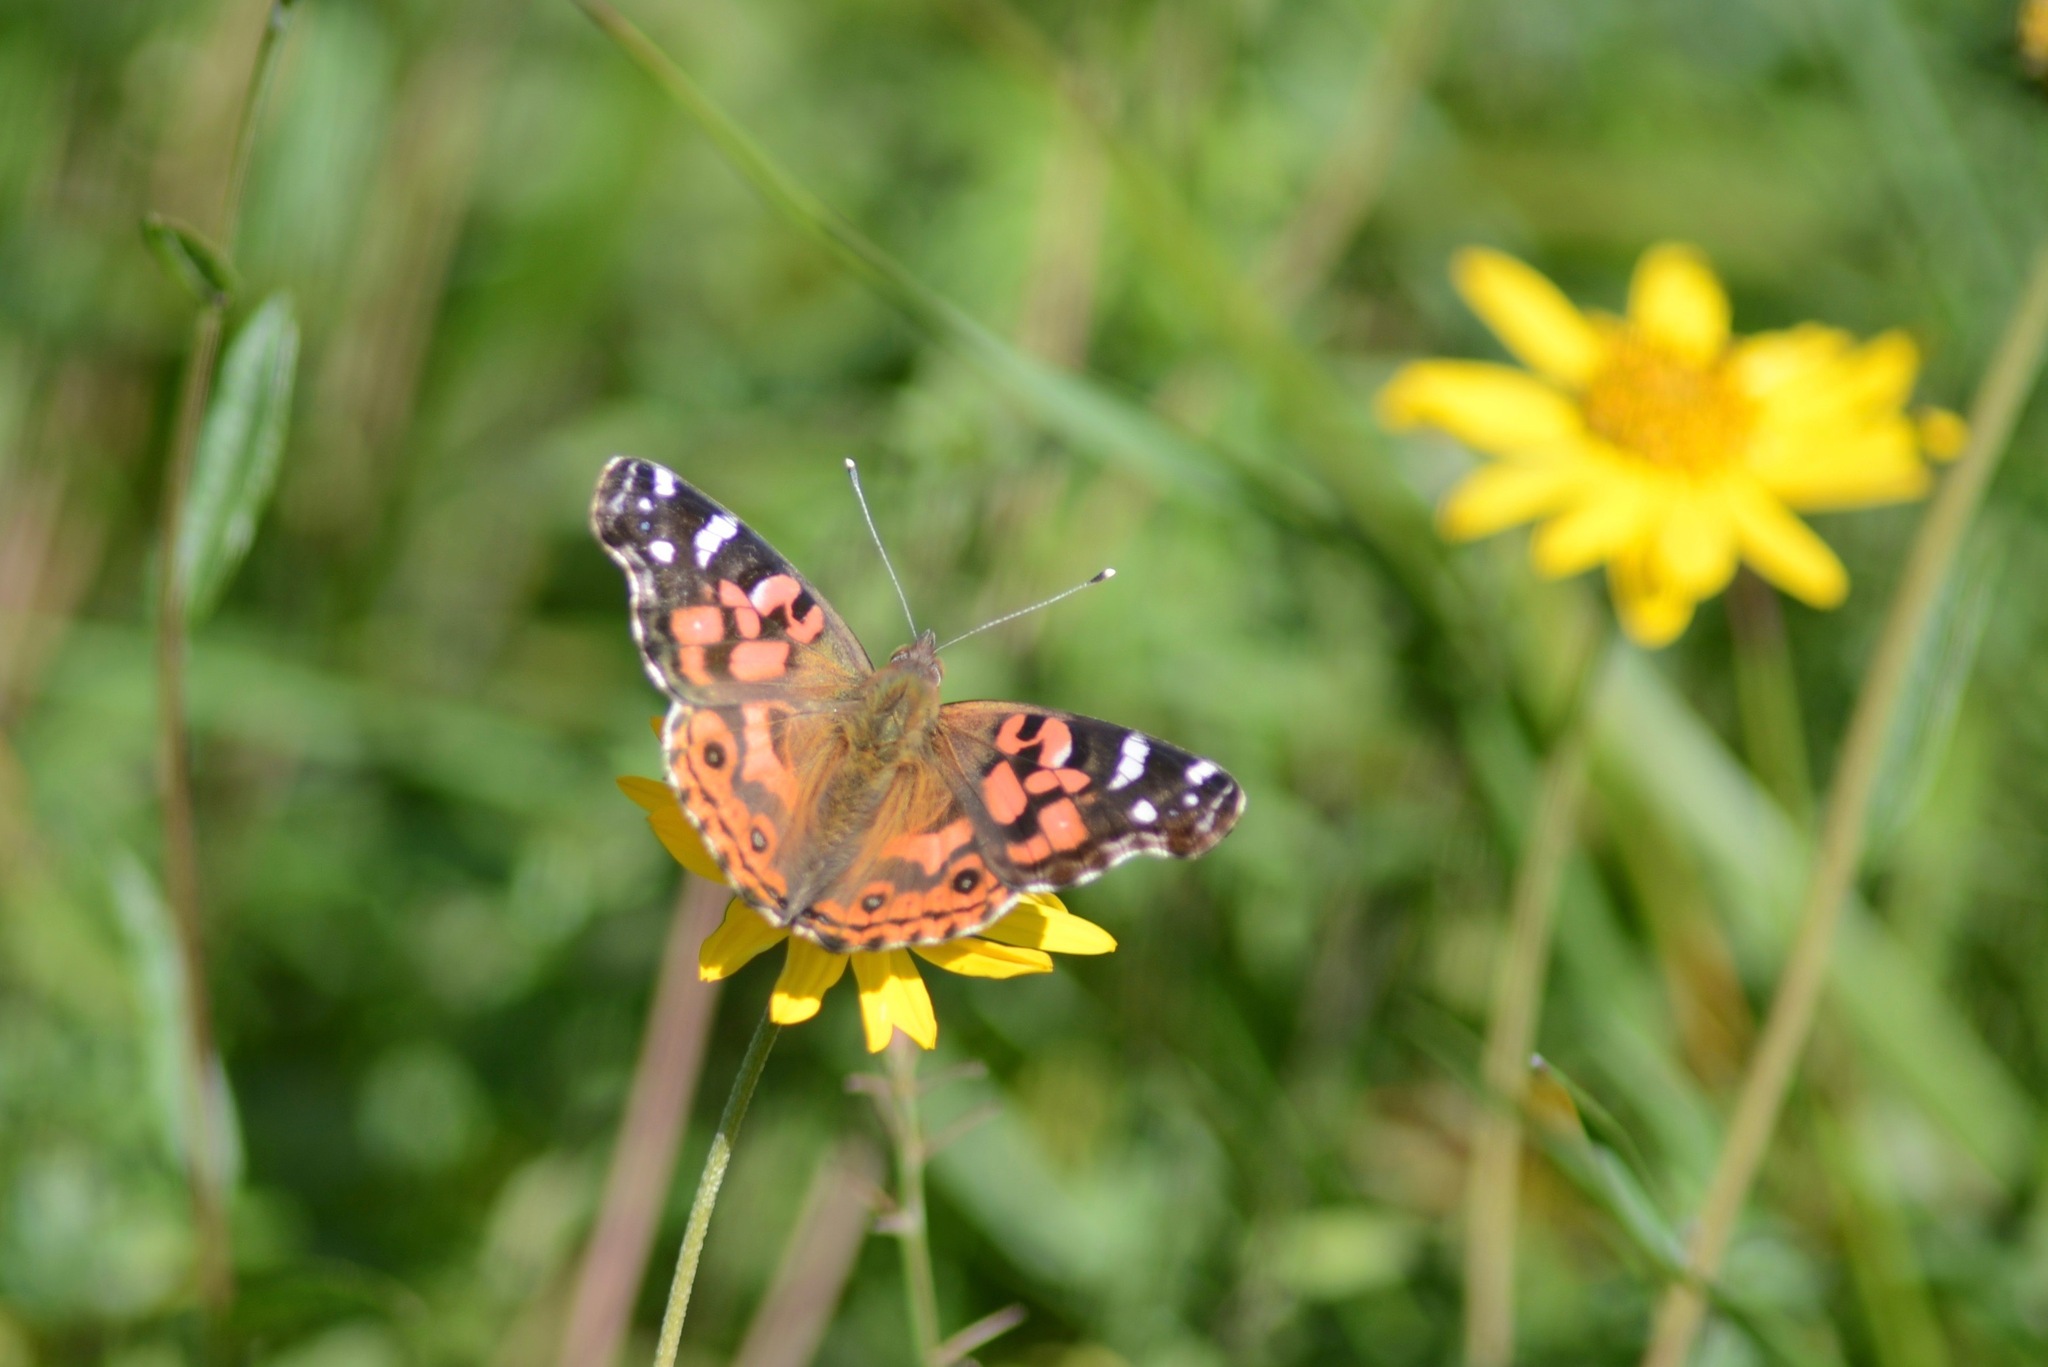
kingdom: Animalia
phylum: Arthropoda
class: Insecta
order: Lepidoptera
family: Nymphalidae
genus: Vanessa
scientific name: Vanessa braziliensis
